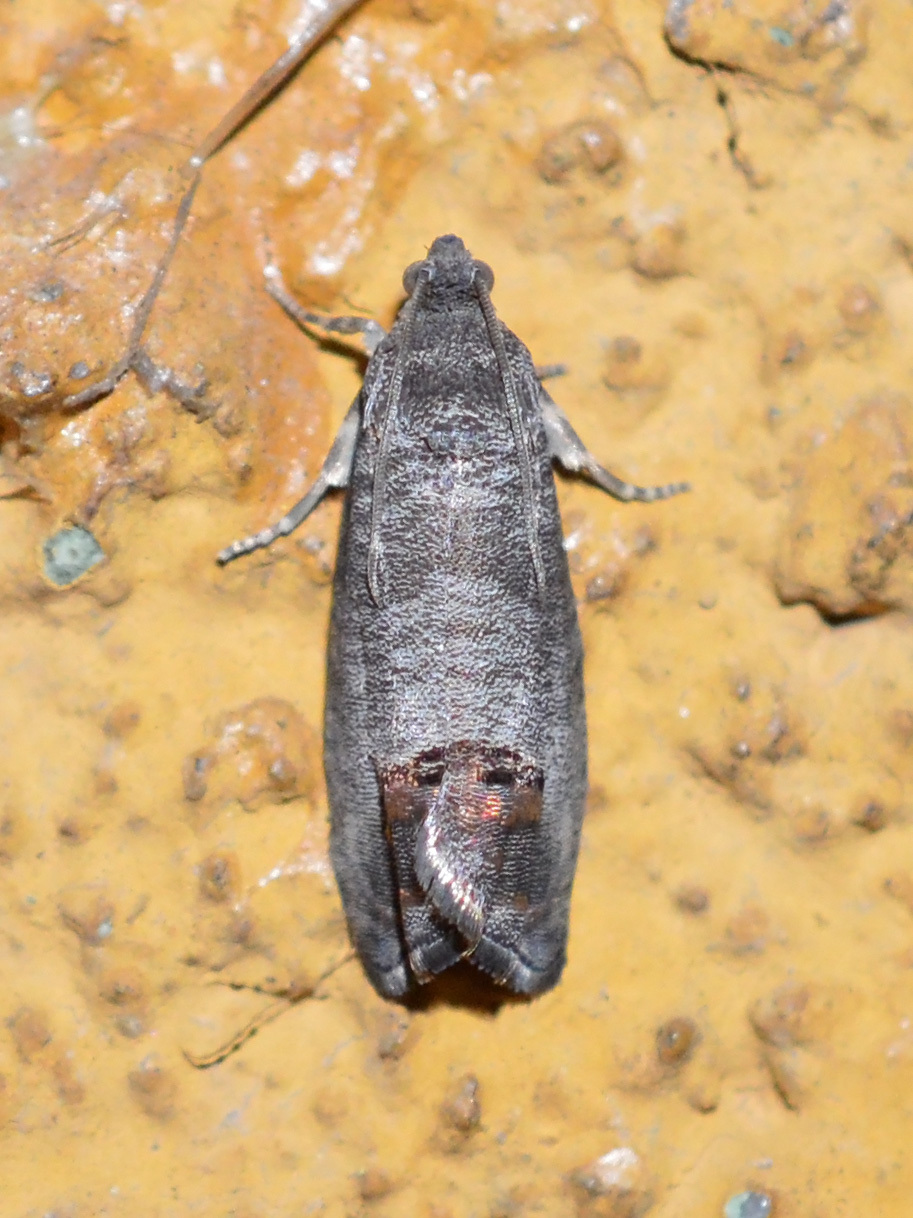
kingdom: Animalia
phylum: Arthropoda
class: Insecta
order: Lepidoptera
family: Tortricidae
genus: Cydia
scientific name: Cydia pomonella
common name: Codling moth
